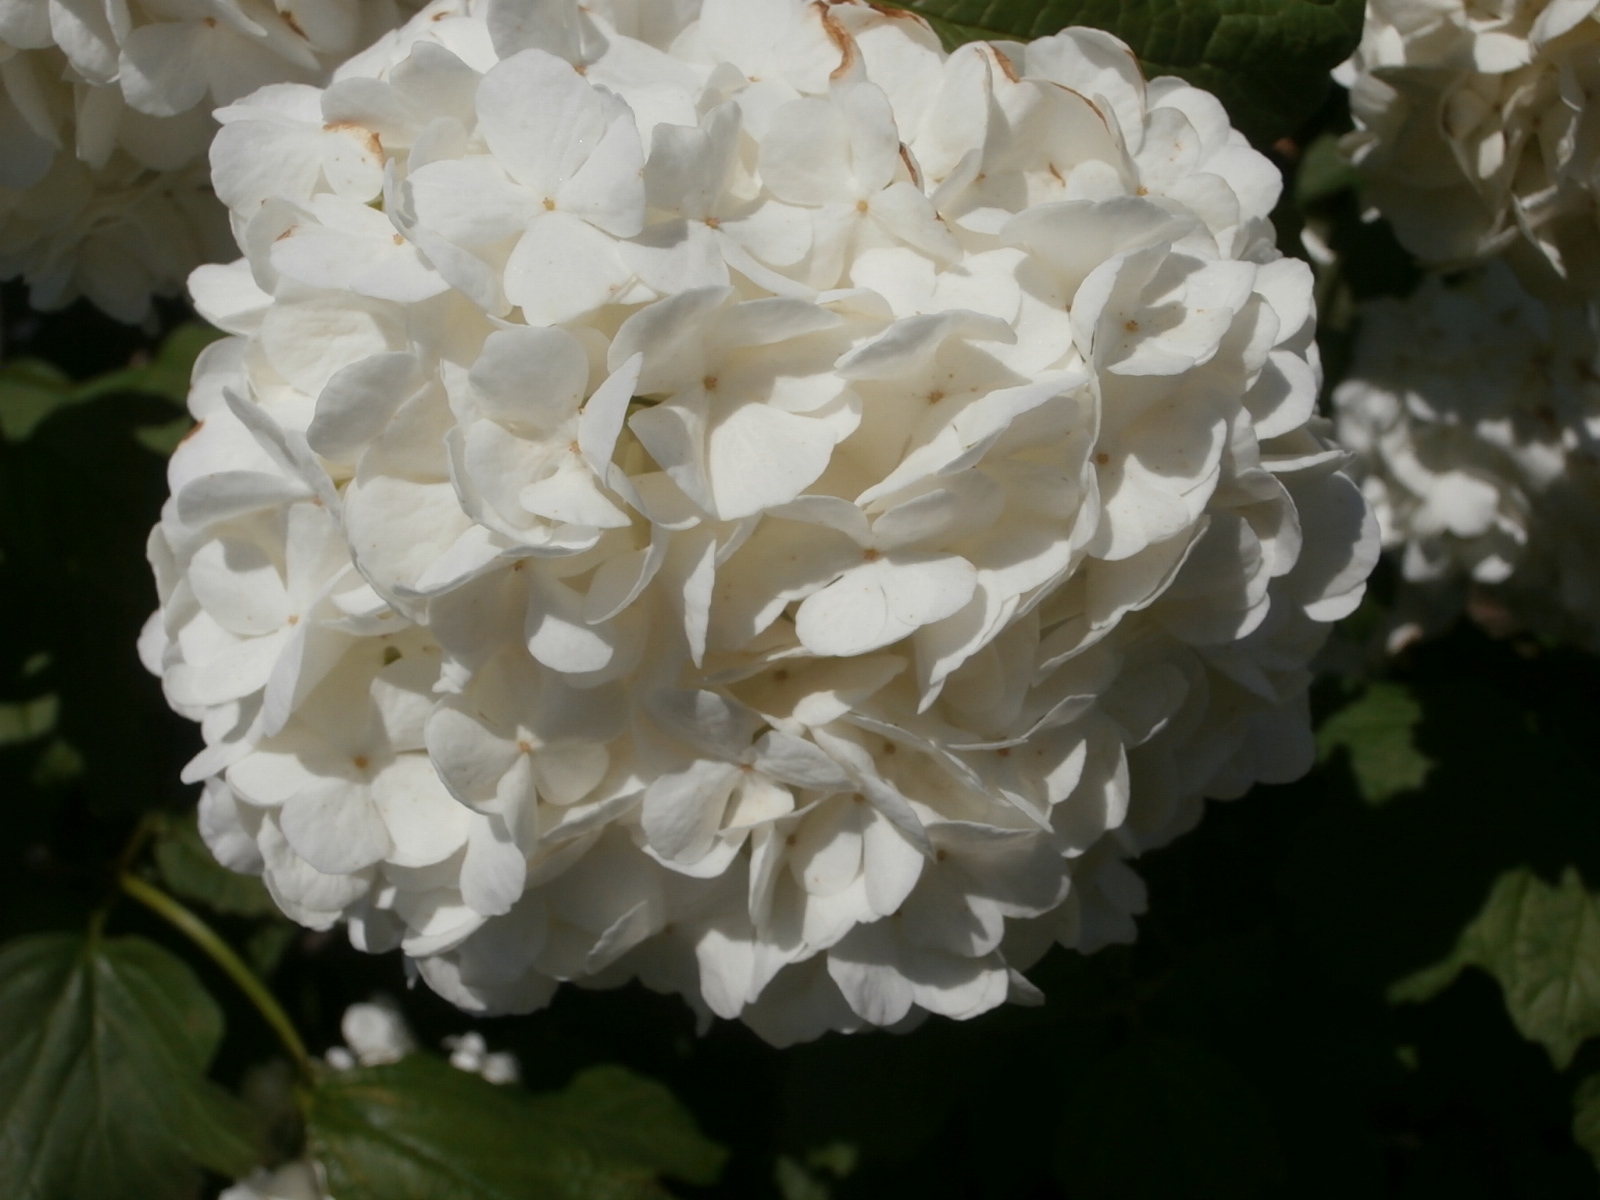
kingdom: Plantae
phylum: Tracheophyta
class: Magnoliopsida
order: Dipsacales
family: Viburnaceae
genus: Viburnum
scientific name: Viburnum opulus
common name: Guelder-rose
